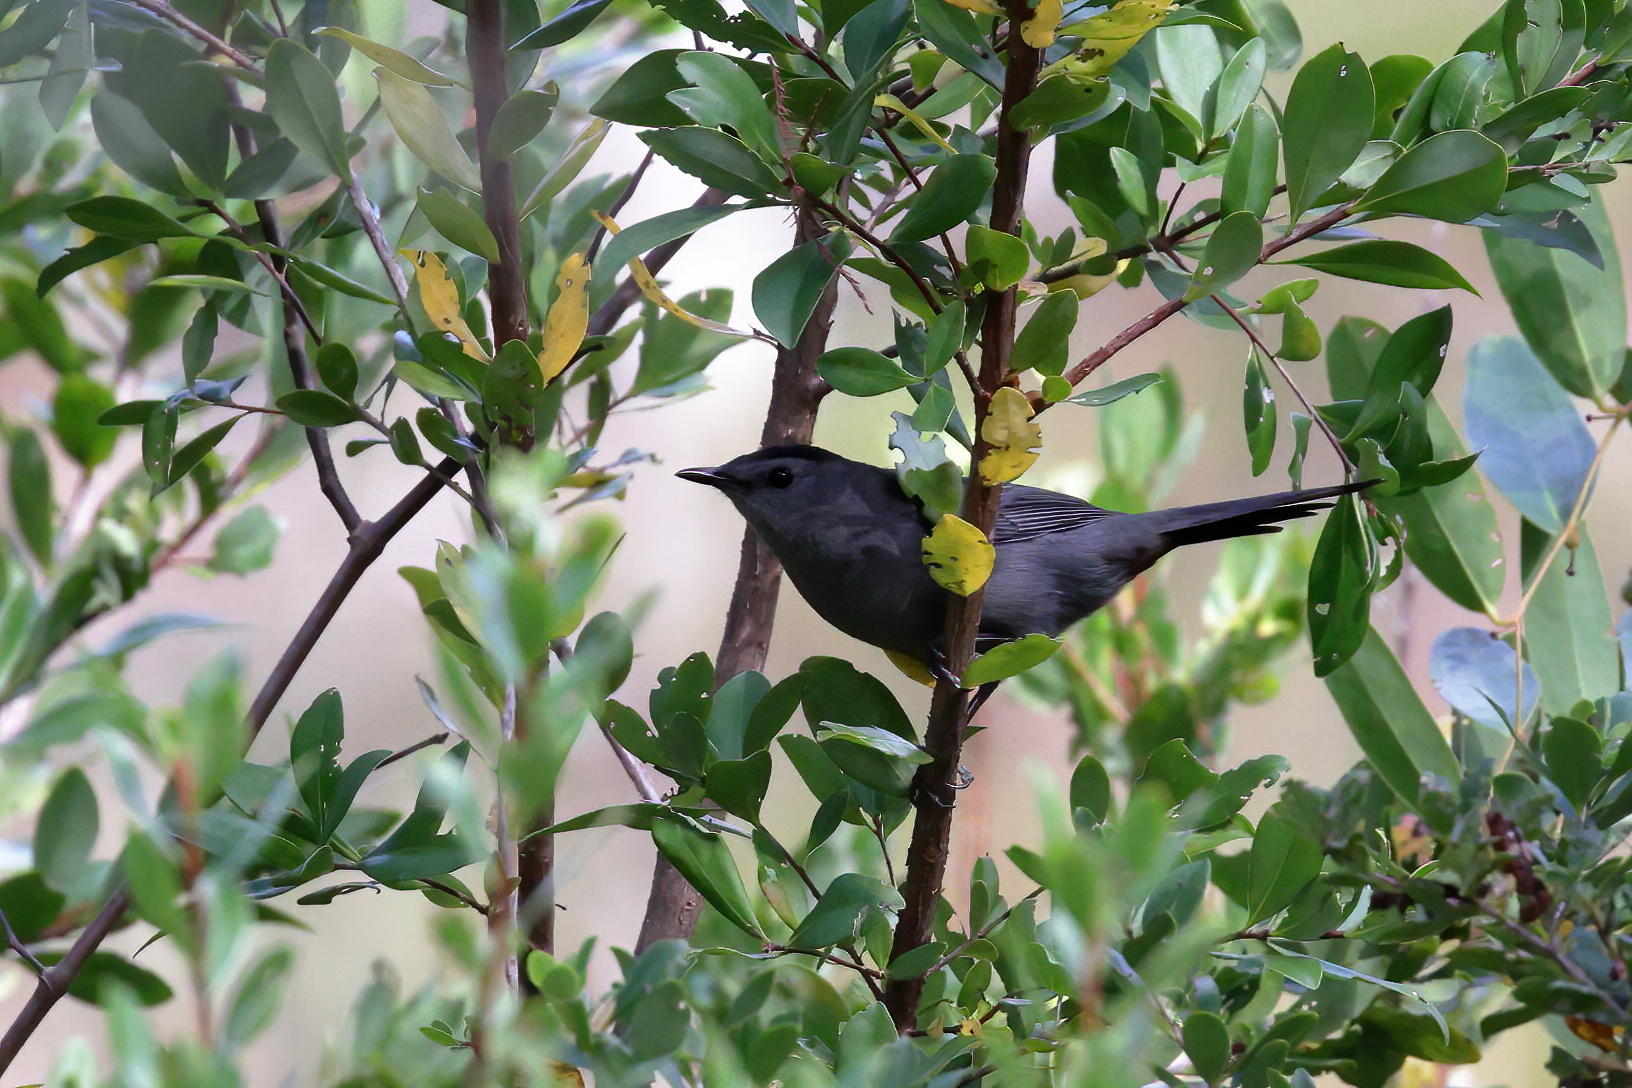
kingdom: Animalia
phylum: Chordata
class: Aves
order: Passeriformes
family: Mimidae
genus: Dumetella
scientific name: Dumetella carolinensis
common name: Gray catbird
